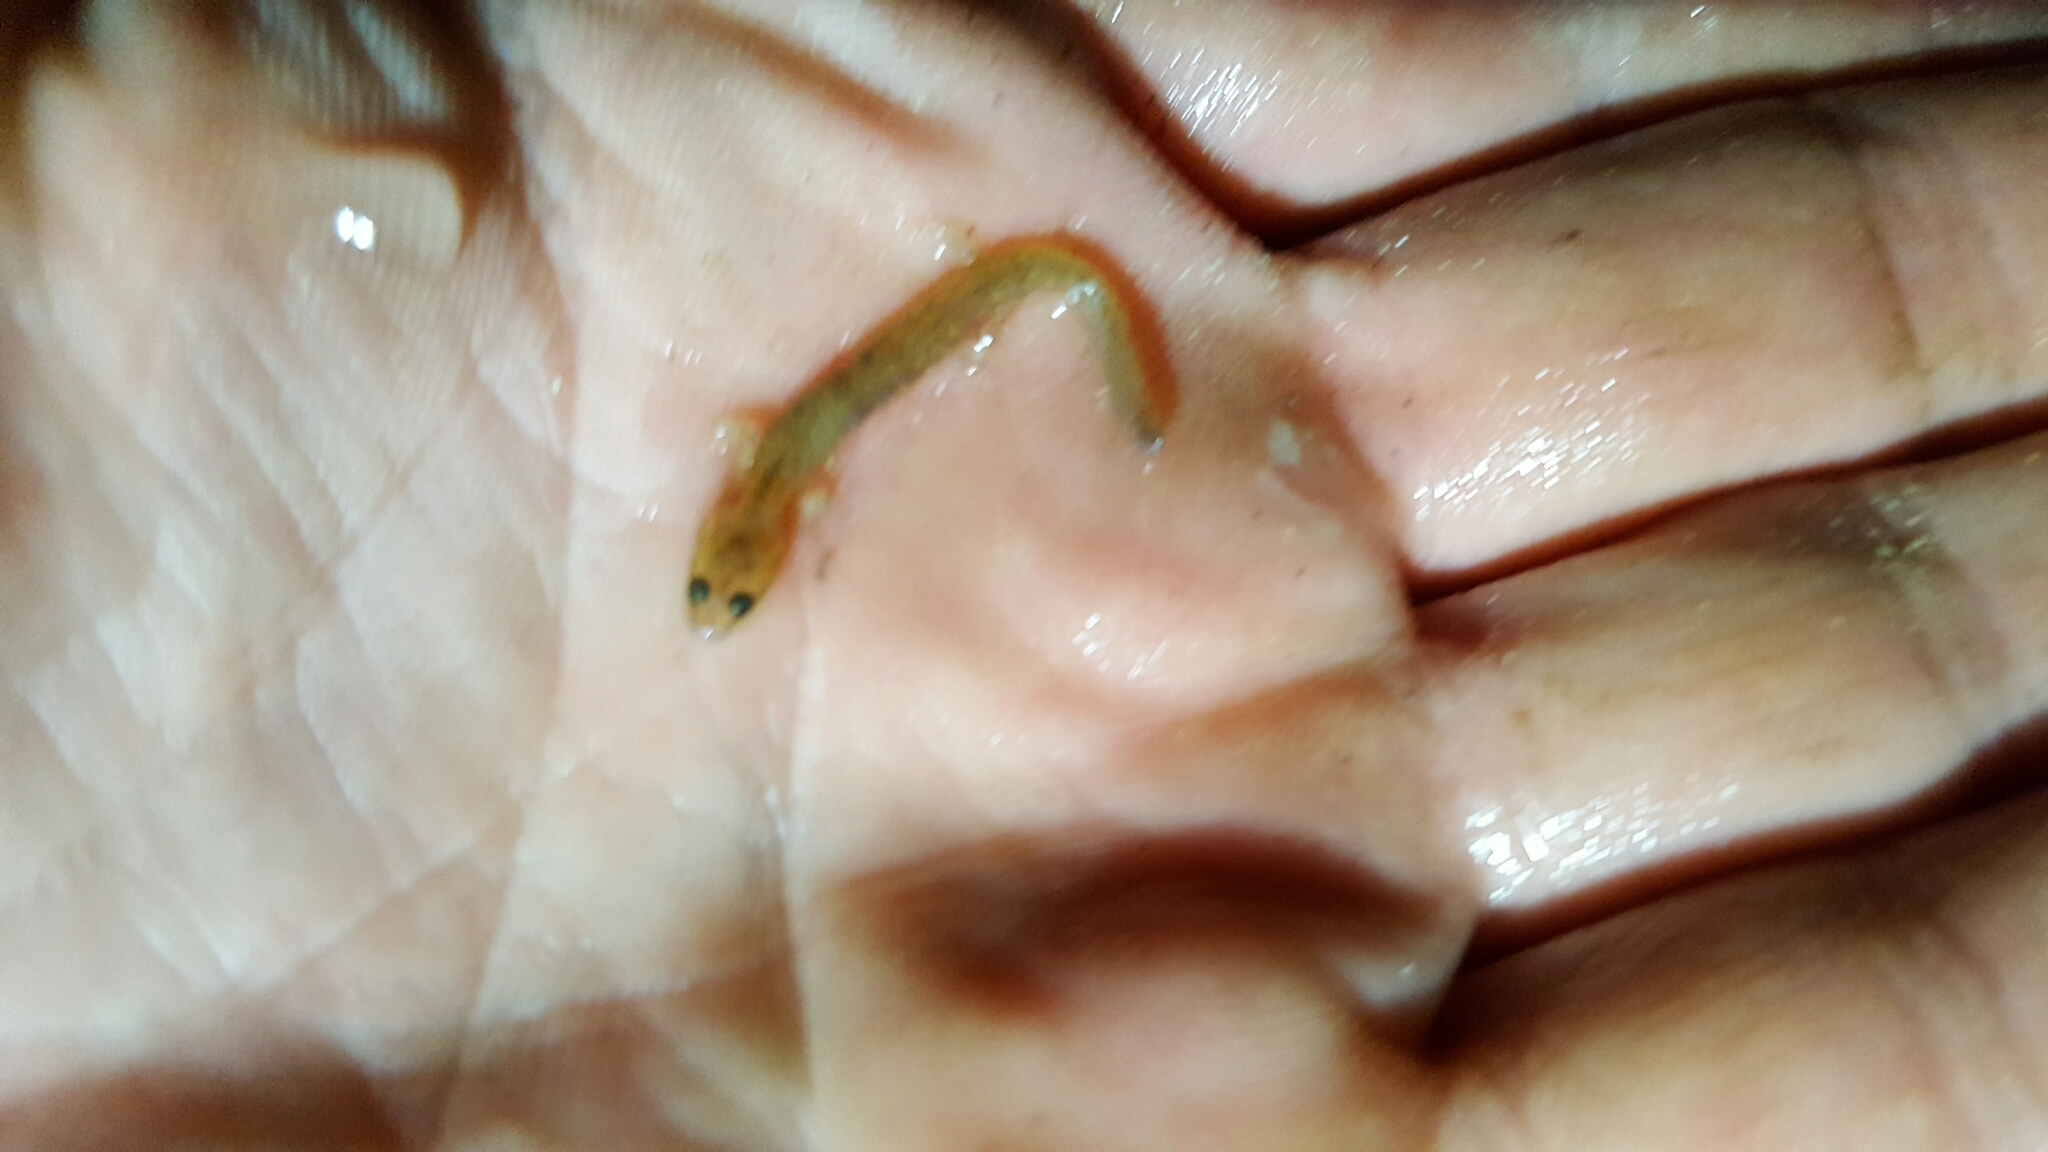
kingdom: Animalia
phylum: Chordata
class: Amphibia
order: Caudata
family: Plethodontidae
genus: Eurycea
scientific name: Eurycea multiplicata
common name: Many-ribbed salamander
